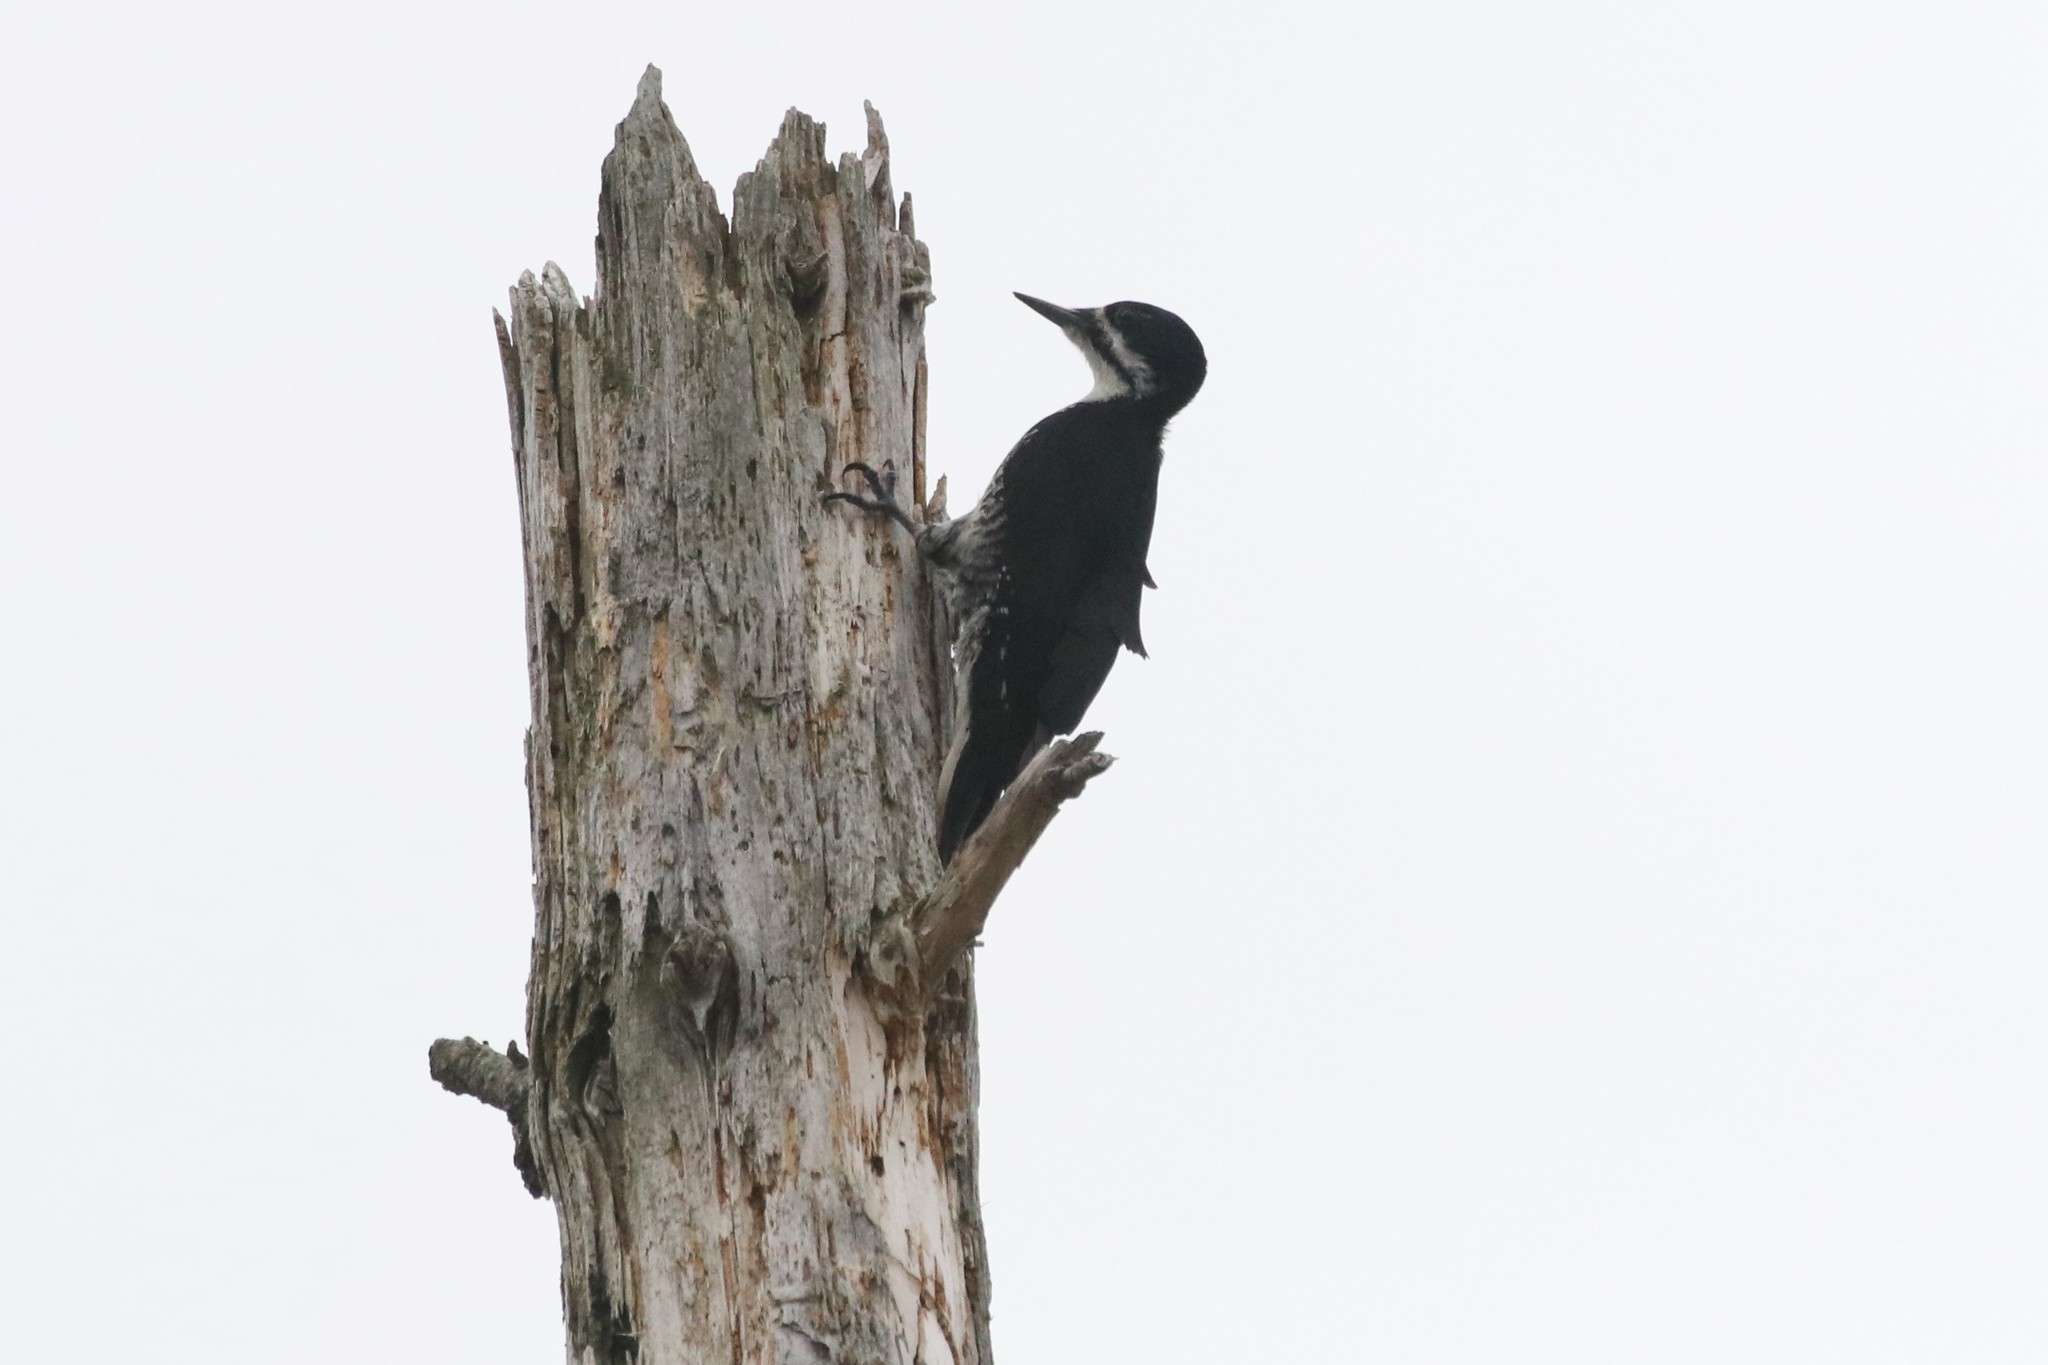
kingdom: Animalia
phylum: Chordata
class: Aves
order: Piciformes
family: Picidae
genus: Picoides
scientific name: Picoides arcticus
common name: Black-backed woodpecker
